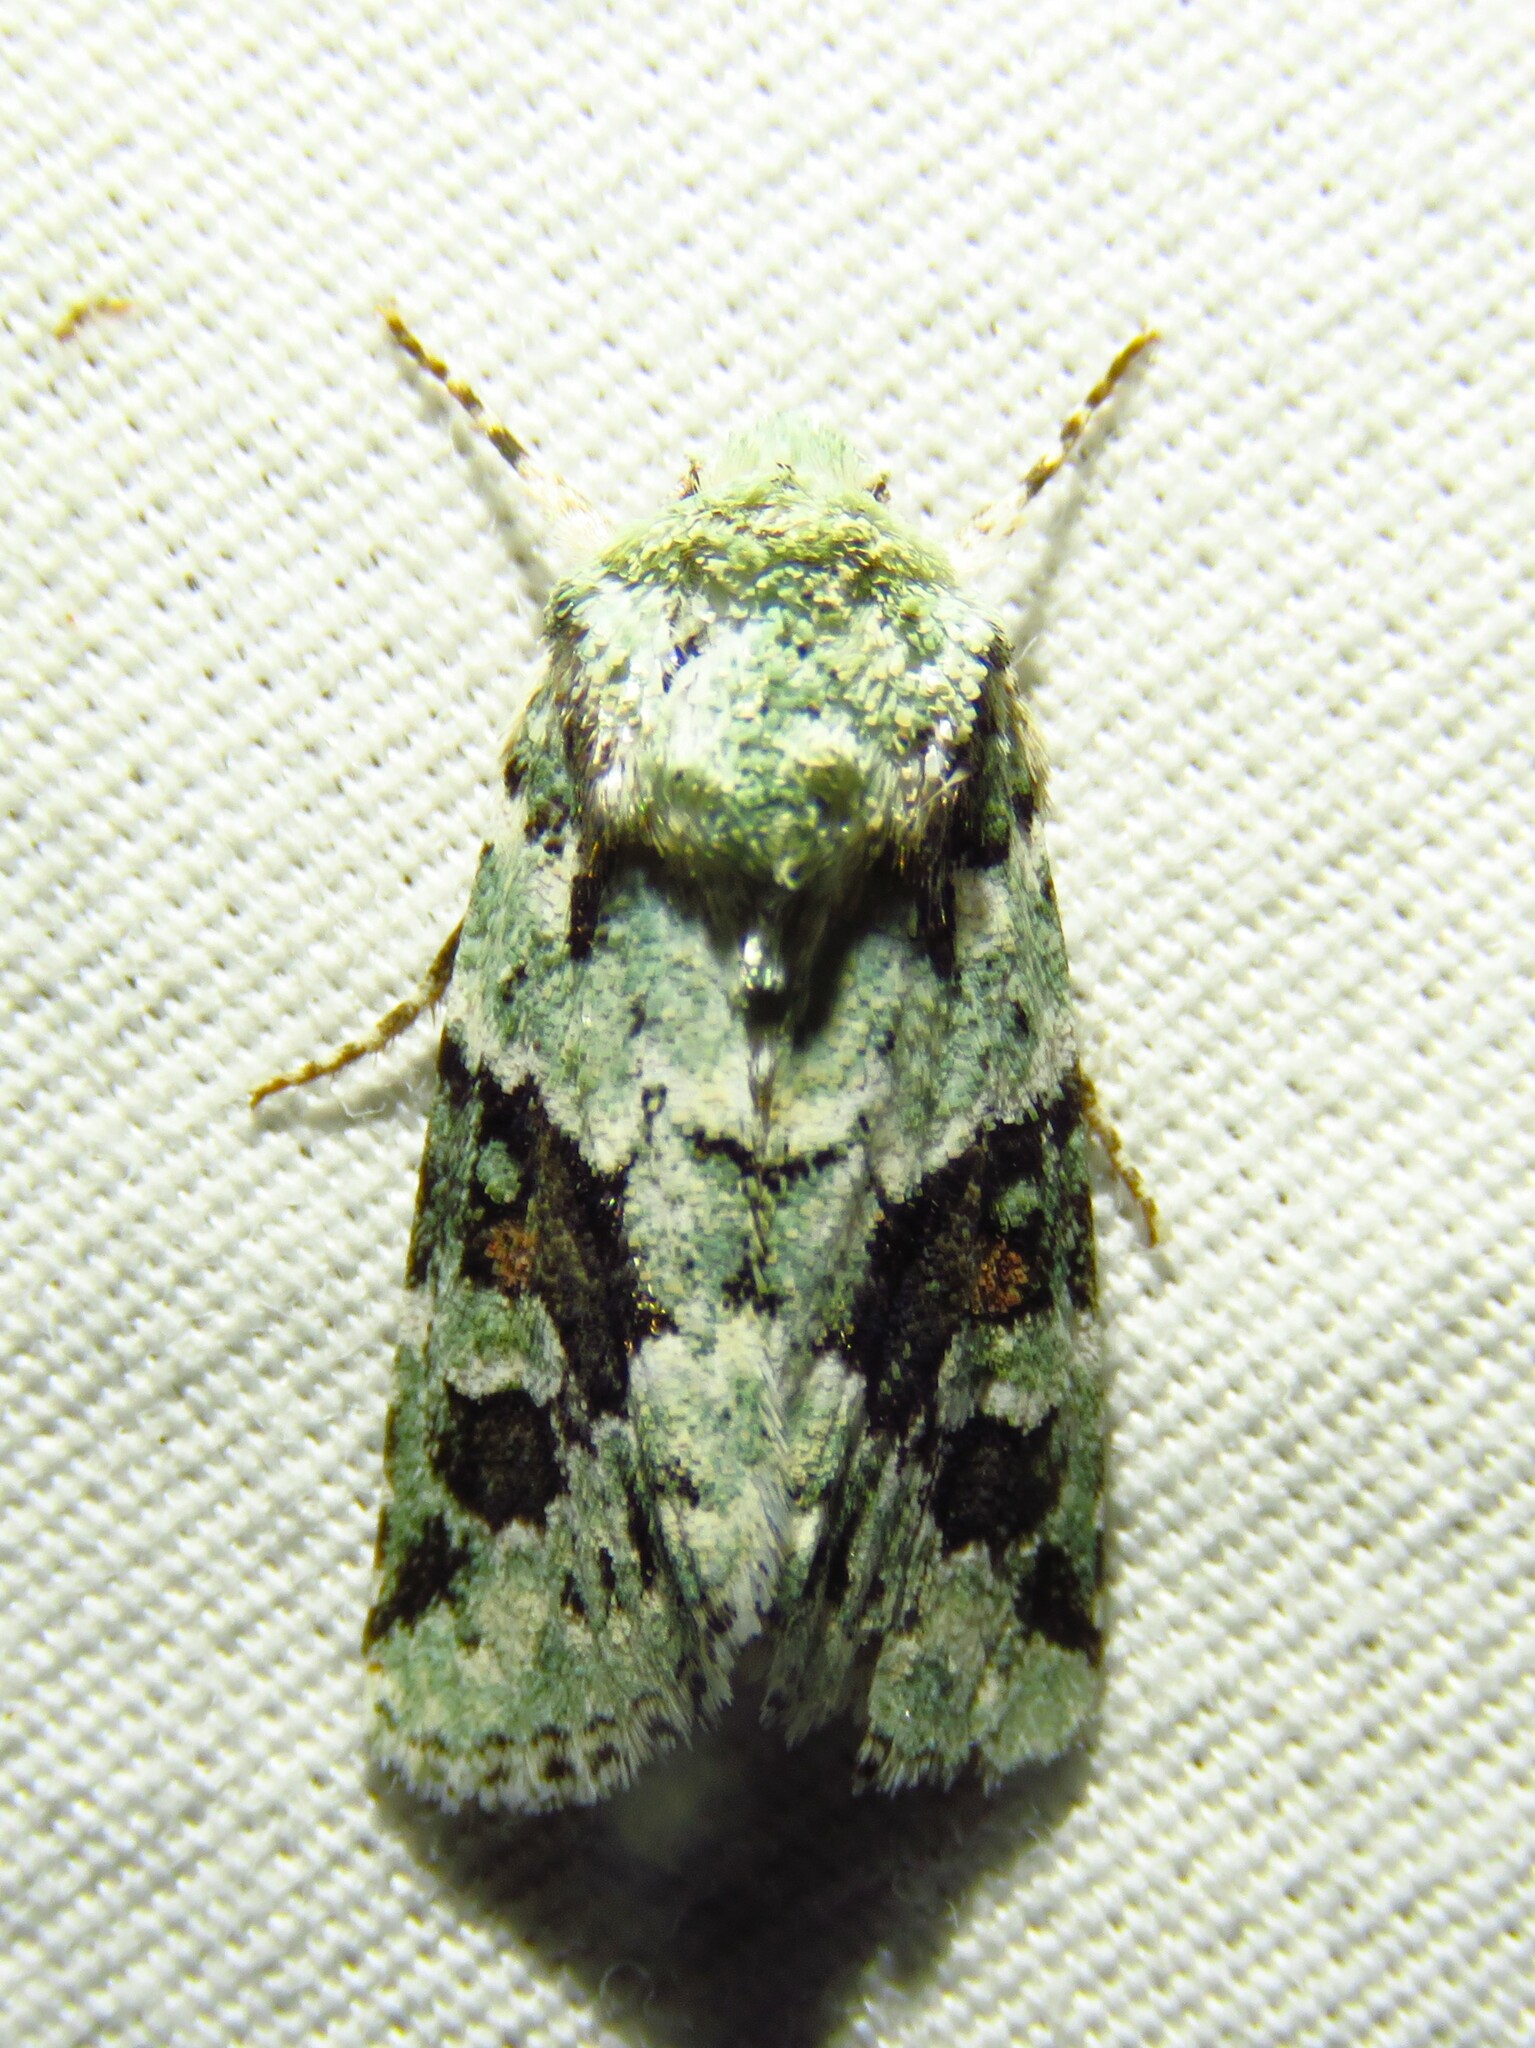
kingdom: Animalia
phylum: Arthropoda
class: Insecta
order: Lepidoptera
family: Noctuidae
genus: Lacinipolia
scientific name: Lacinipolia laudabilis
